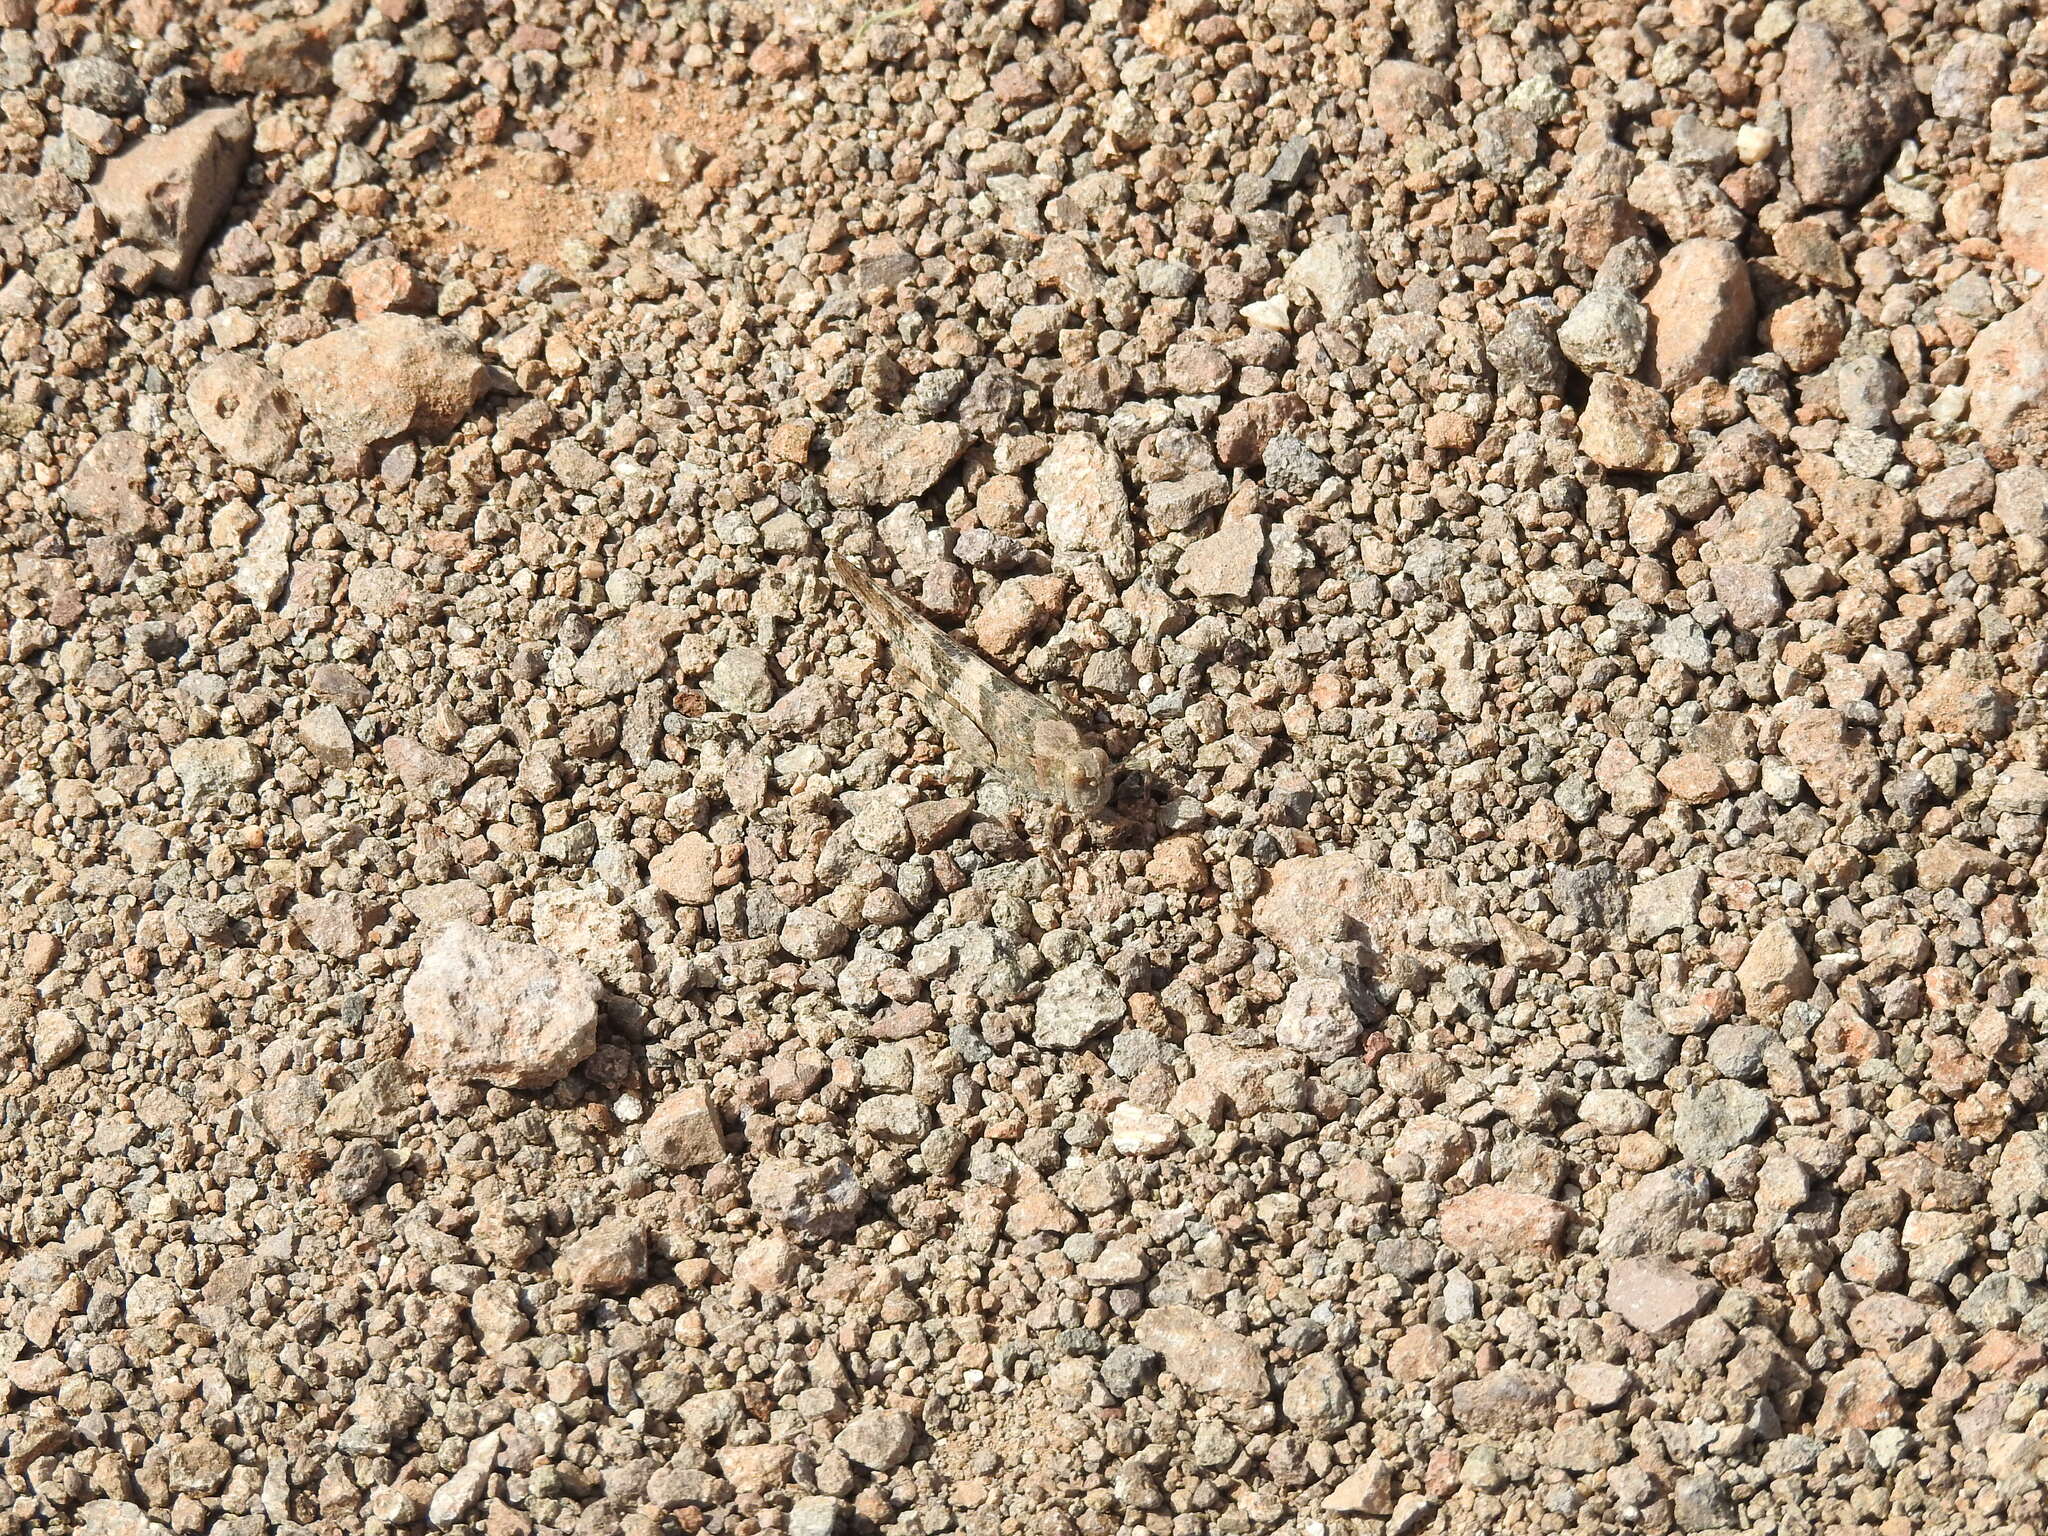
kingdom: Animalia
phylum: Arthropoda
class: Insecta
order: Orthoptera
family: Acrididae
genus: Trimerotropis
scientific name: Trimerotropis pallidipennis
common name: Pallid-winged grasshopper
